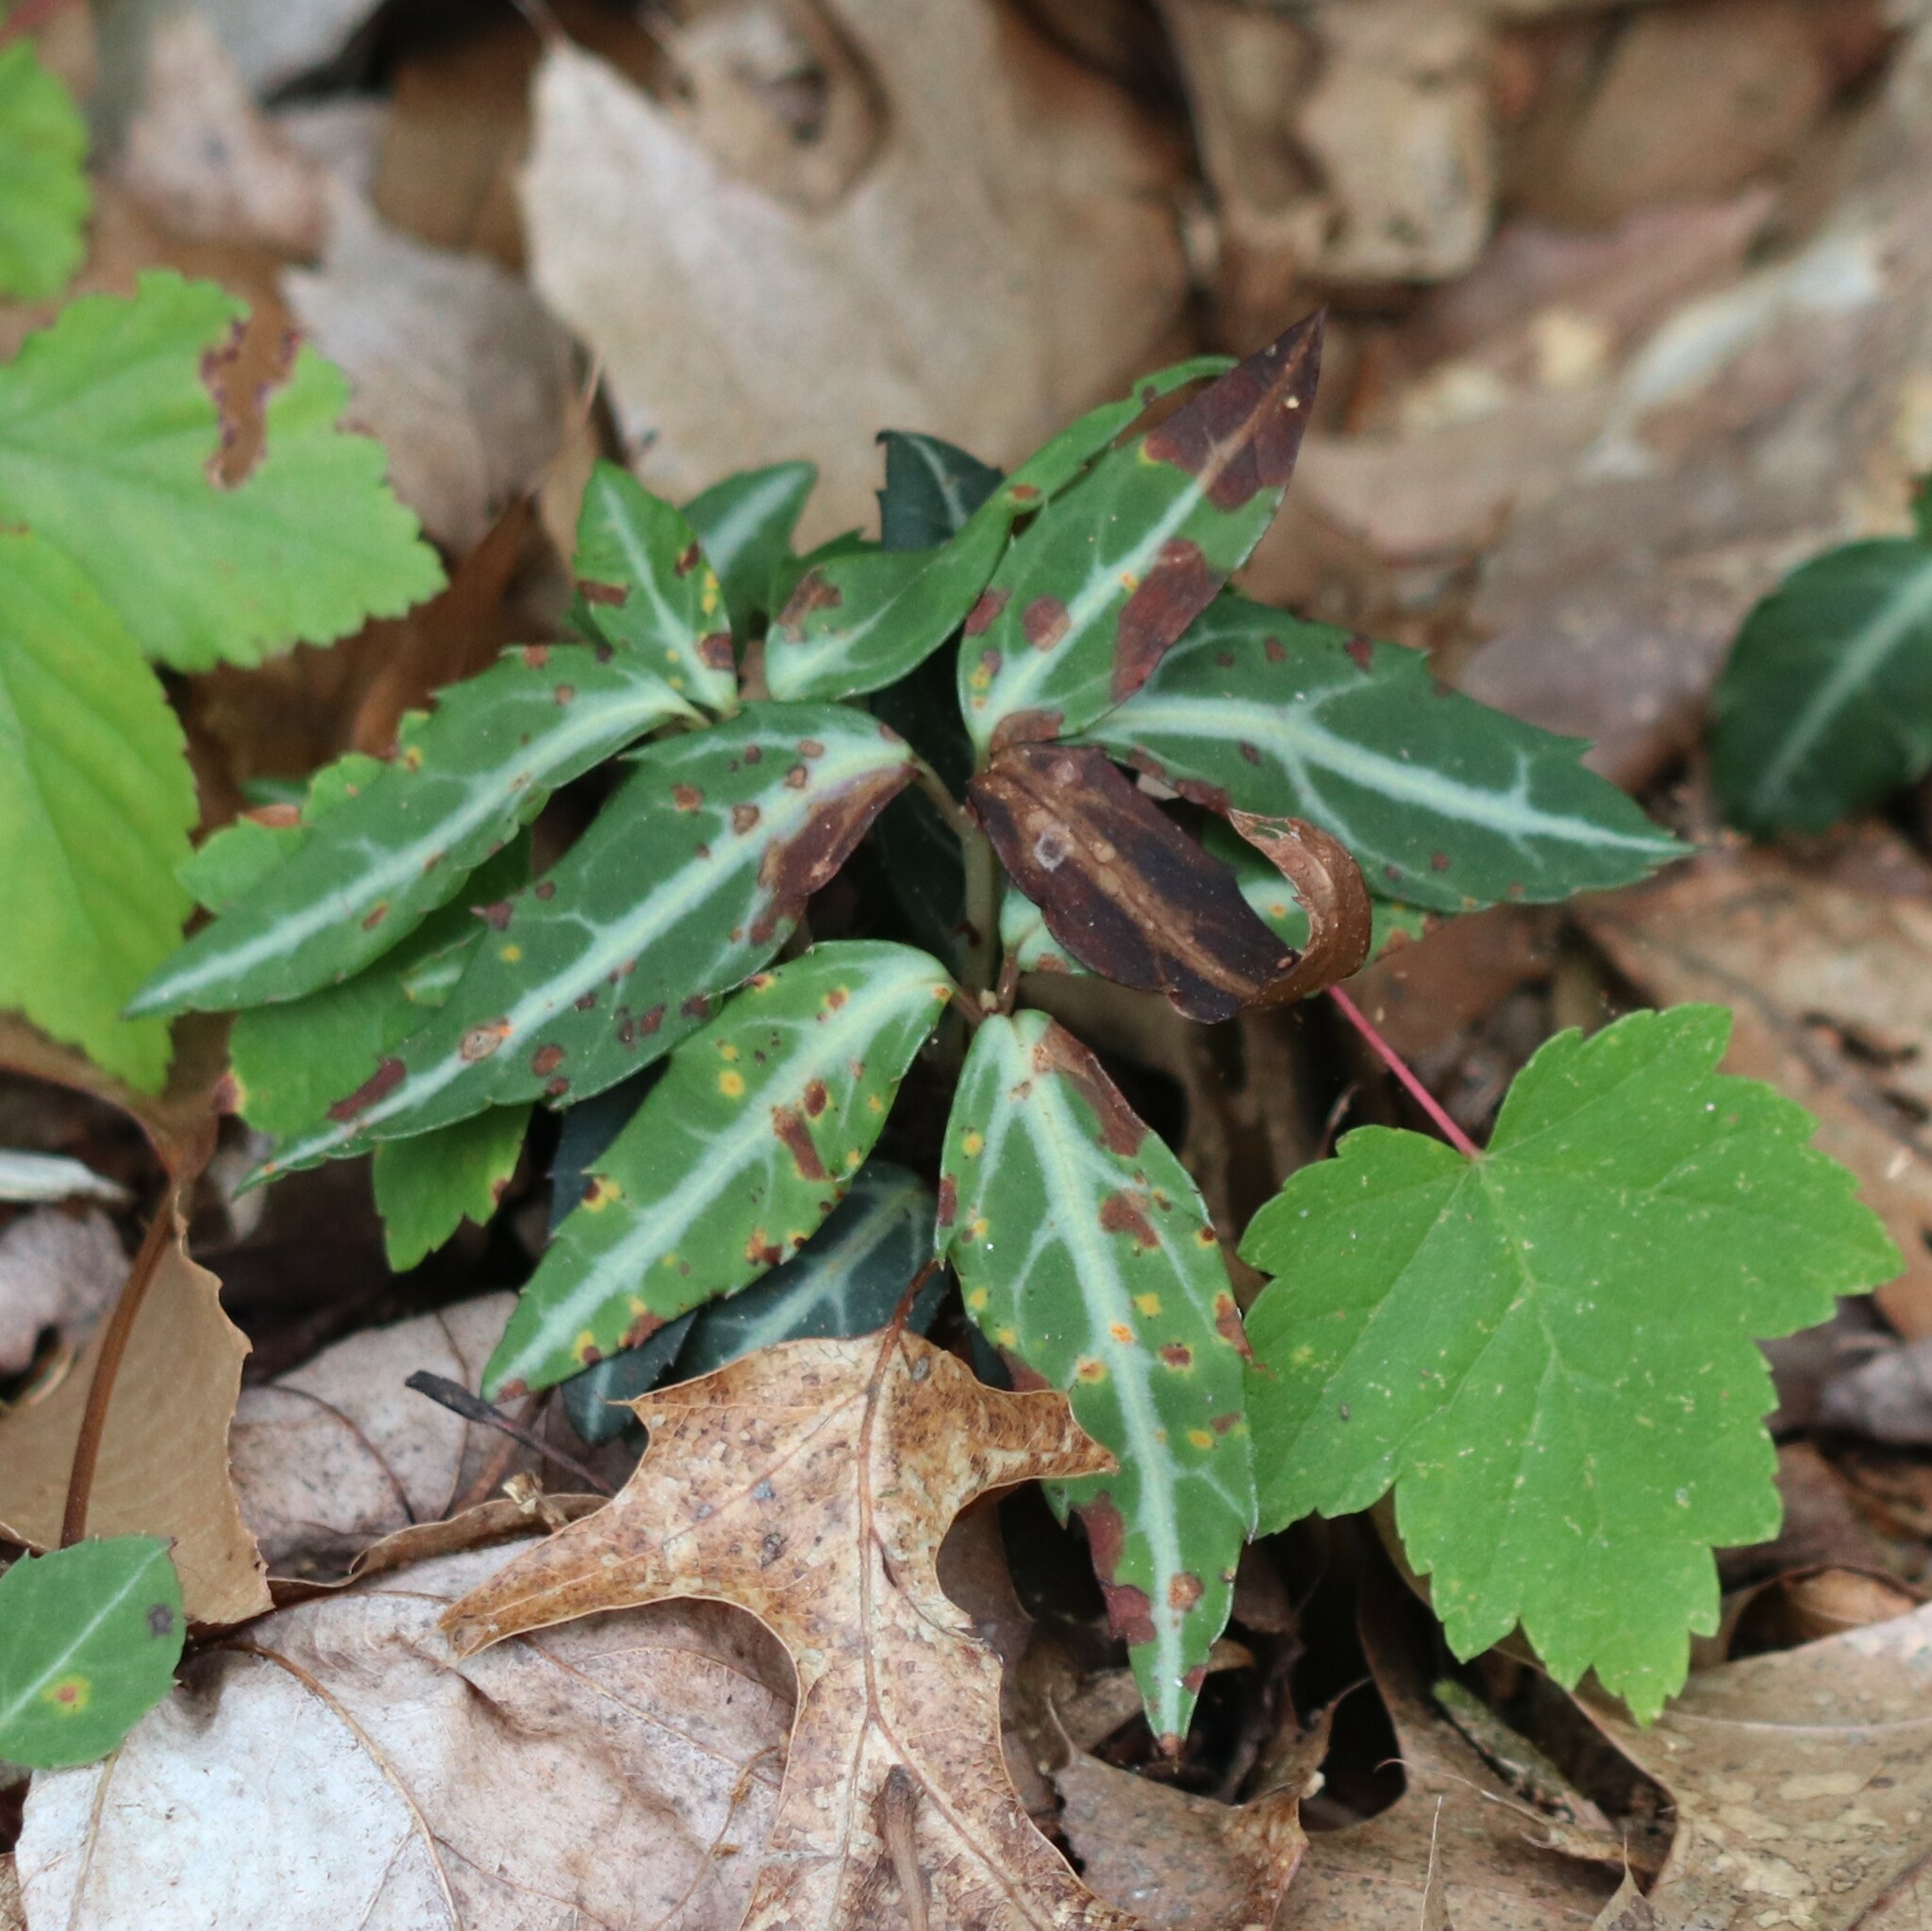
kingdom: Plantae
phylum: Tracheophyta
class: Magnoliopsida
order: Ericales
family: Ericaceae
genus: Chimaphila
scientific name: Chimaphila maculata
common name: Spotted pipsissewa
